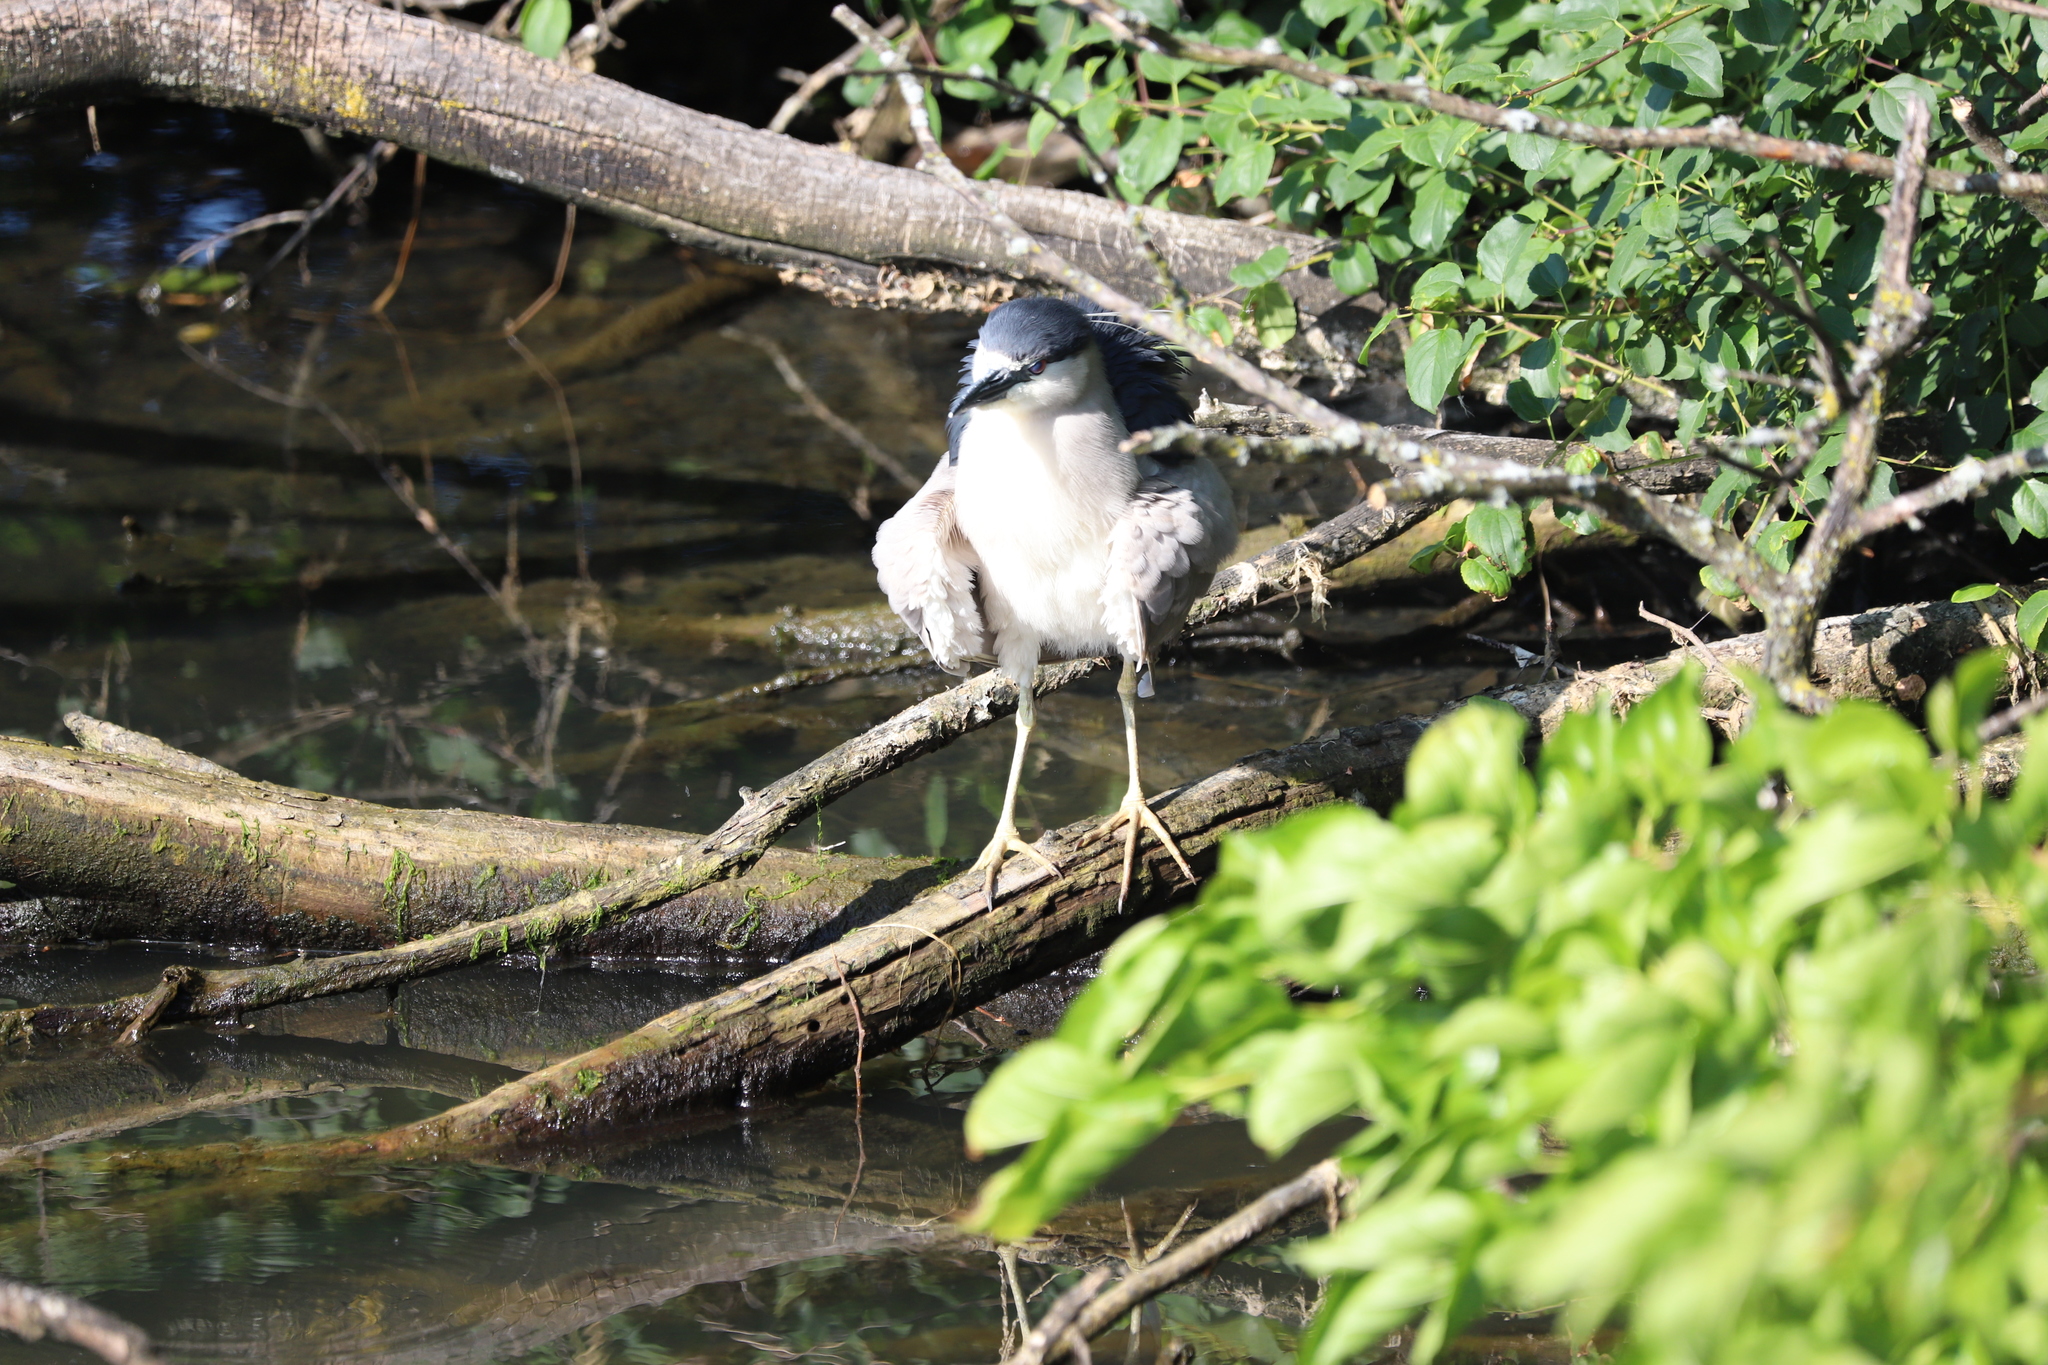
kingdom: Animalia
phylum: Chordata
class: Aves
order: Pelecaniformes
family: Ardeidae
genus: Nycticorax
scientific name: Nycticorax nycticorax
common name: Black-crowned night heron
